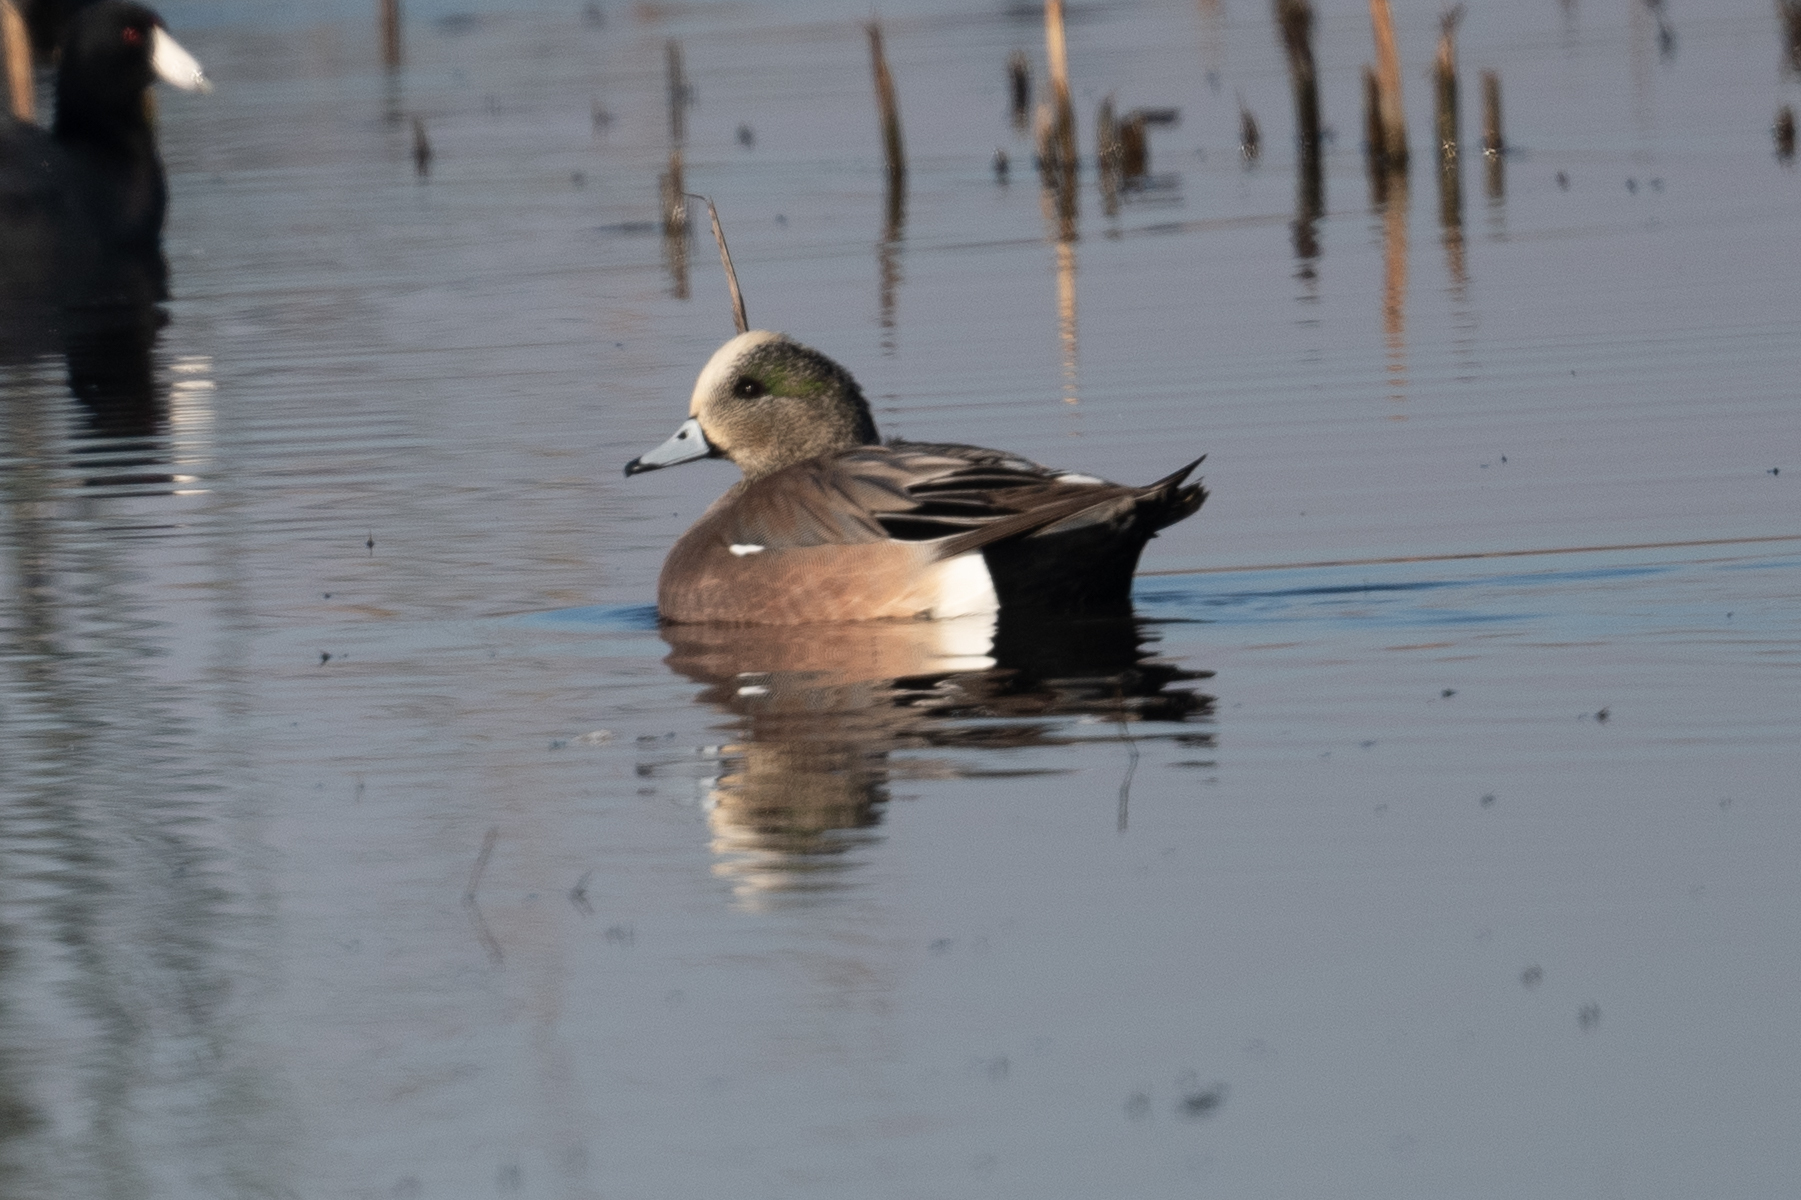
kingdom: Animalia
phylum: Chordata
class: Aves
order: Anseriformes
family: Anatidae
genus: Mareca
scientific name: Mareca americana
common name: American wigeon
